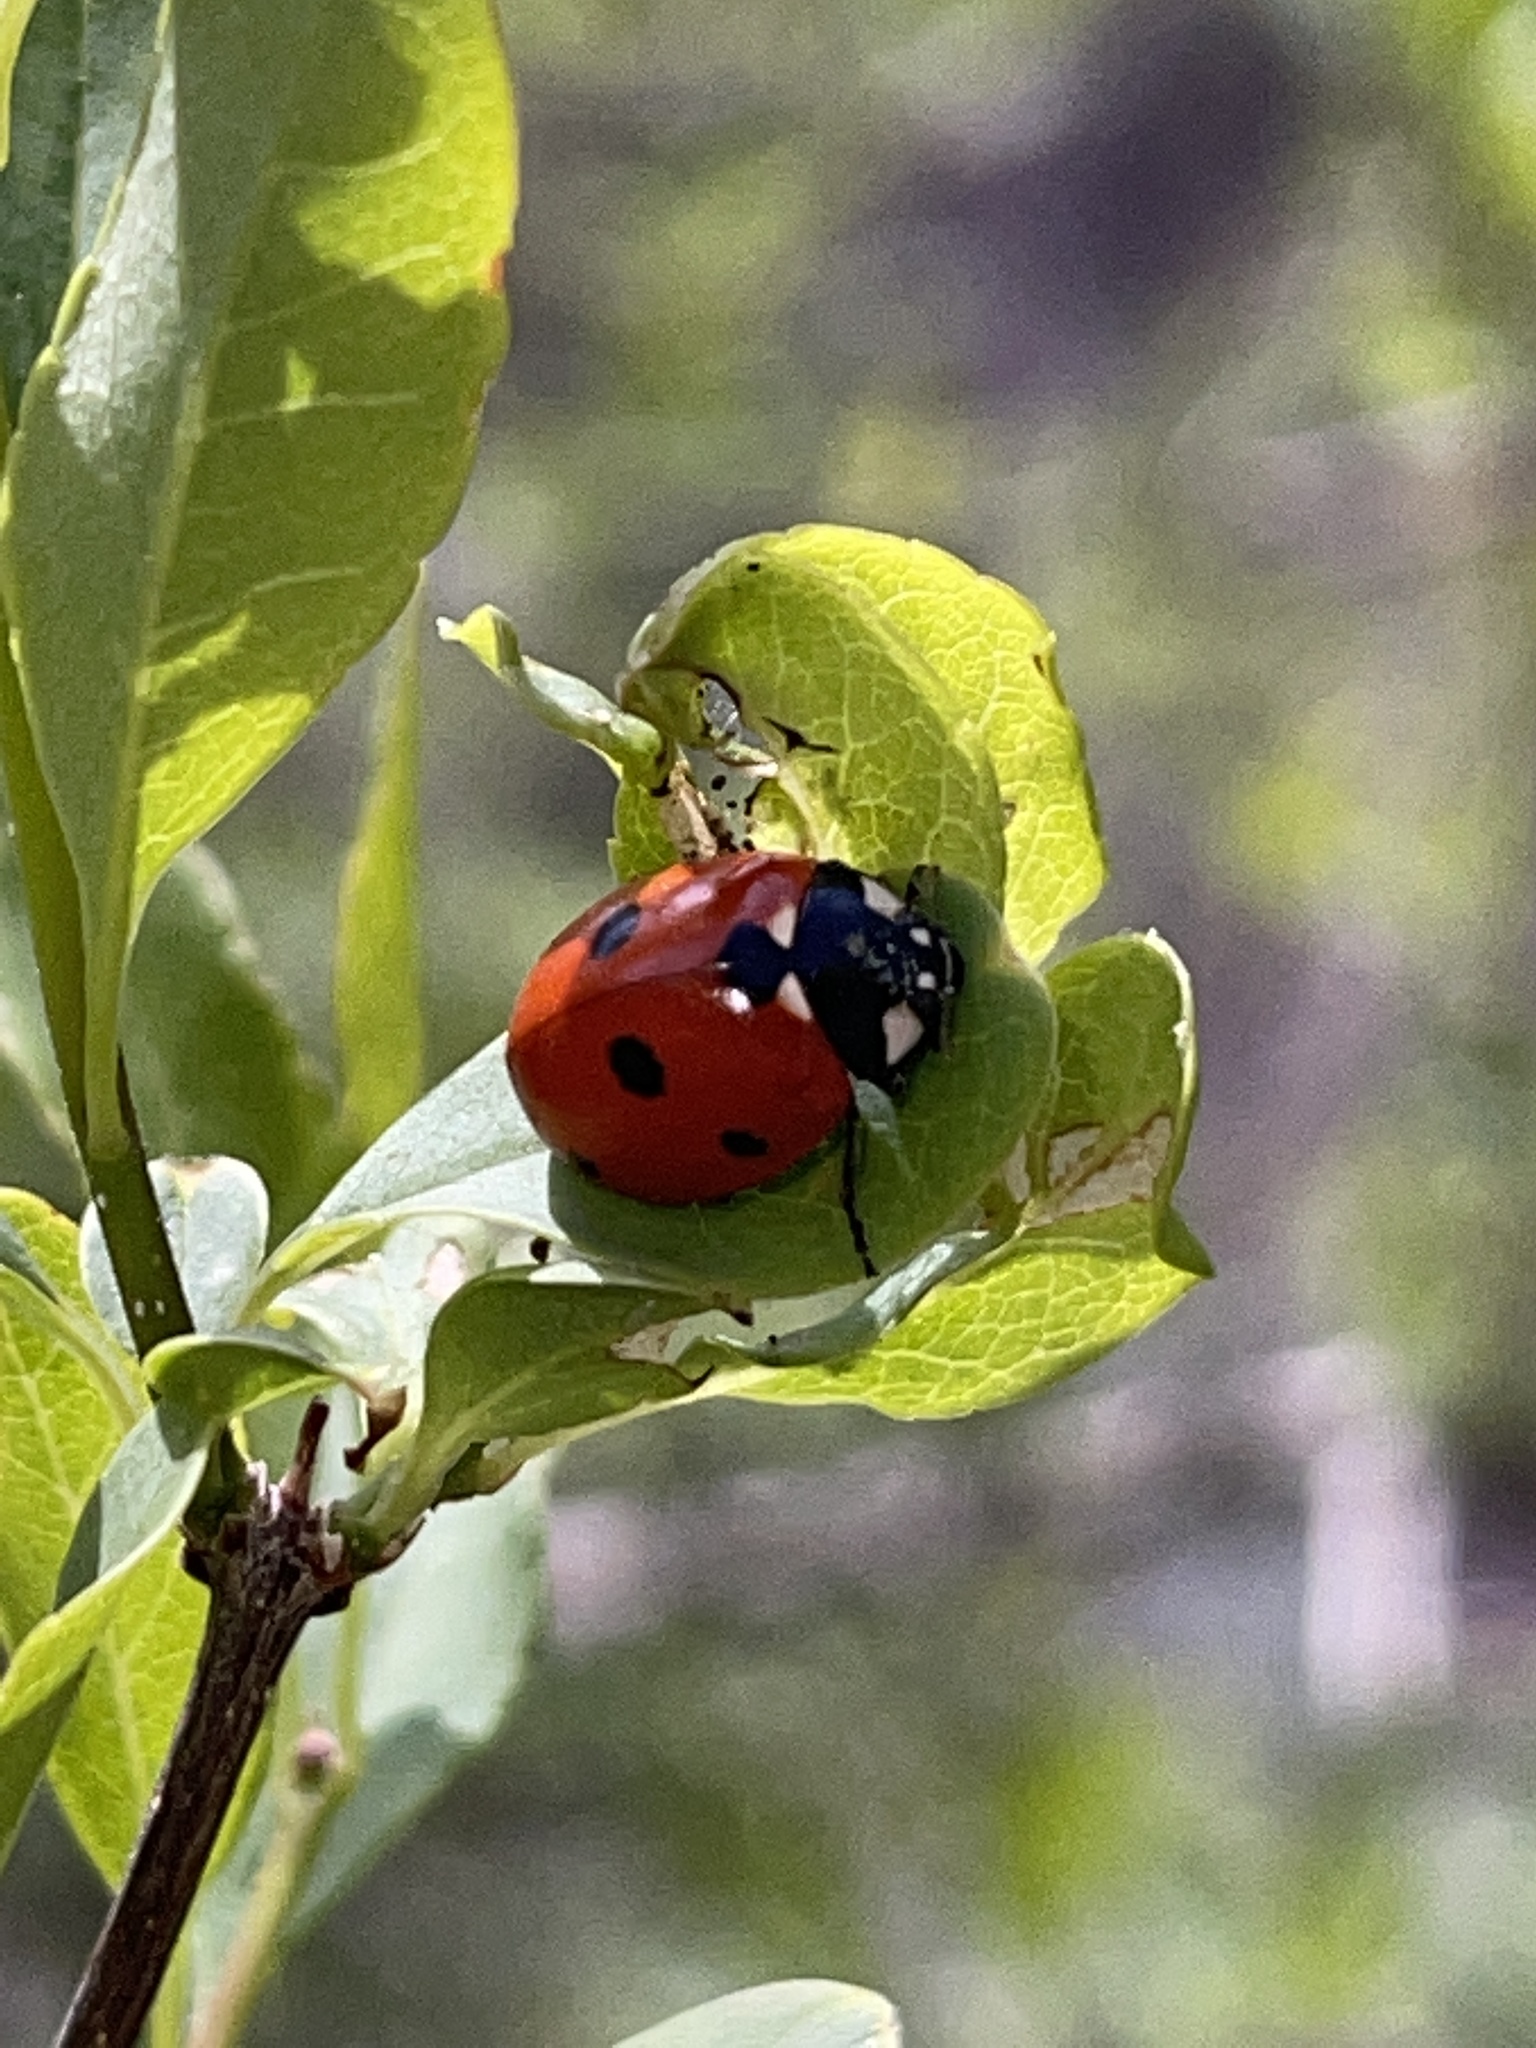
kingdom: Animalia
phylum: Arthropoda
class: Insecta
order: Coleoptera
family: Coccinellidae
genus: Coccinella
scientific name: Coccinella septempunctata
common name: Sevenspotted lady beetle
